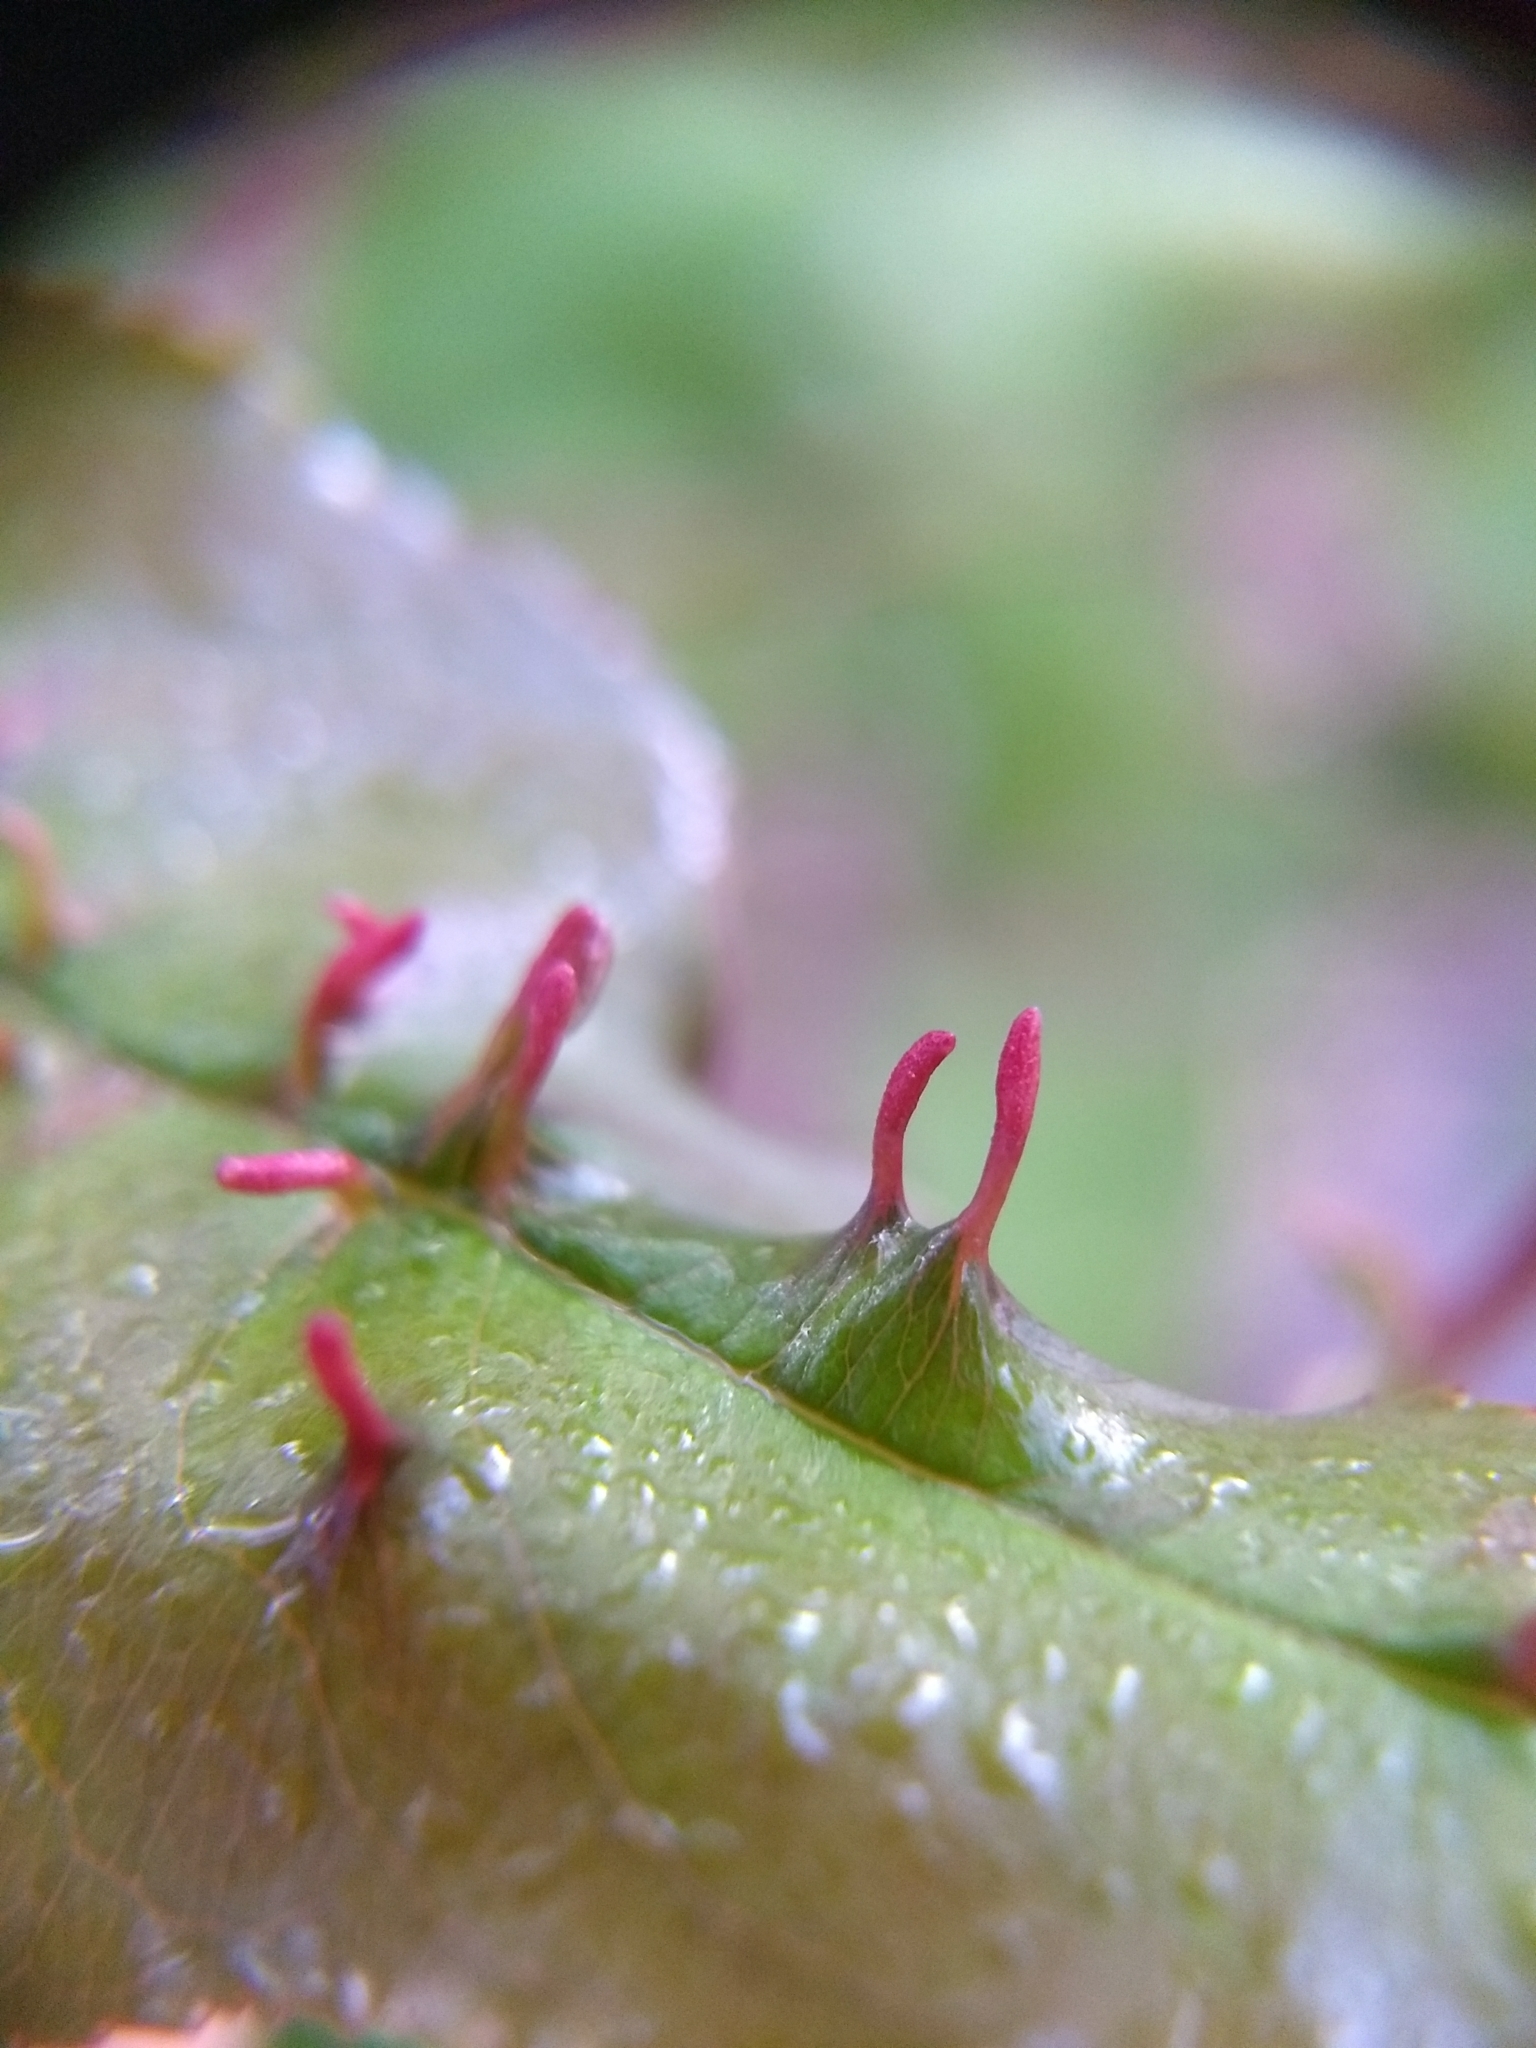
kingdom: Animalia
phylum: Arthropoda
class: Arachnida
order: Trombidiformes
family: Eriophyidae
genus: Eriophyes
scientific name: Eriophyes
